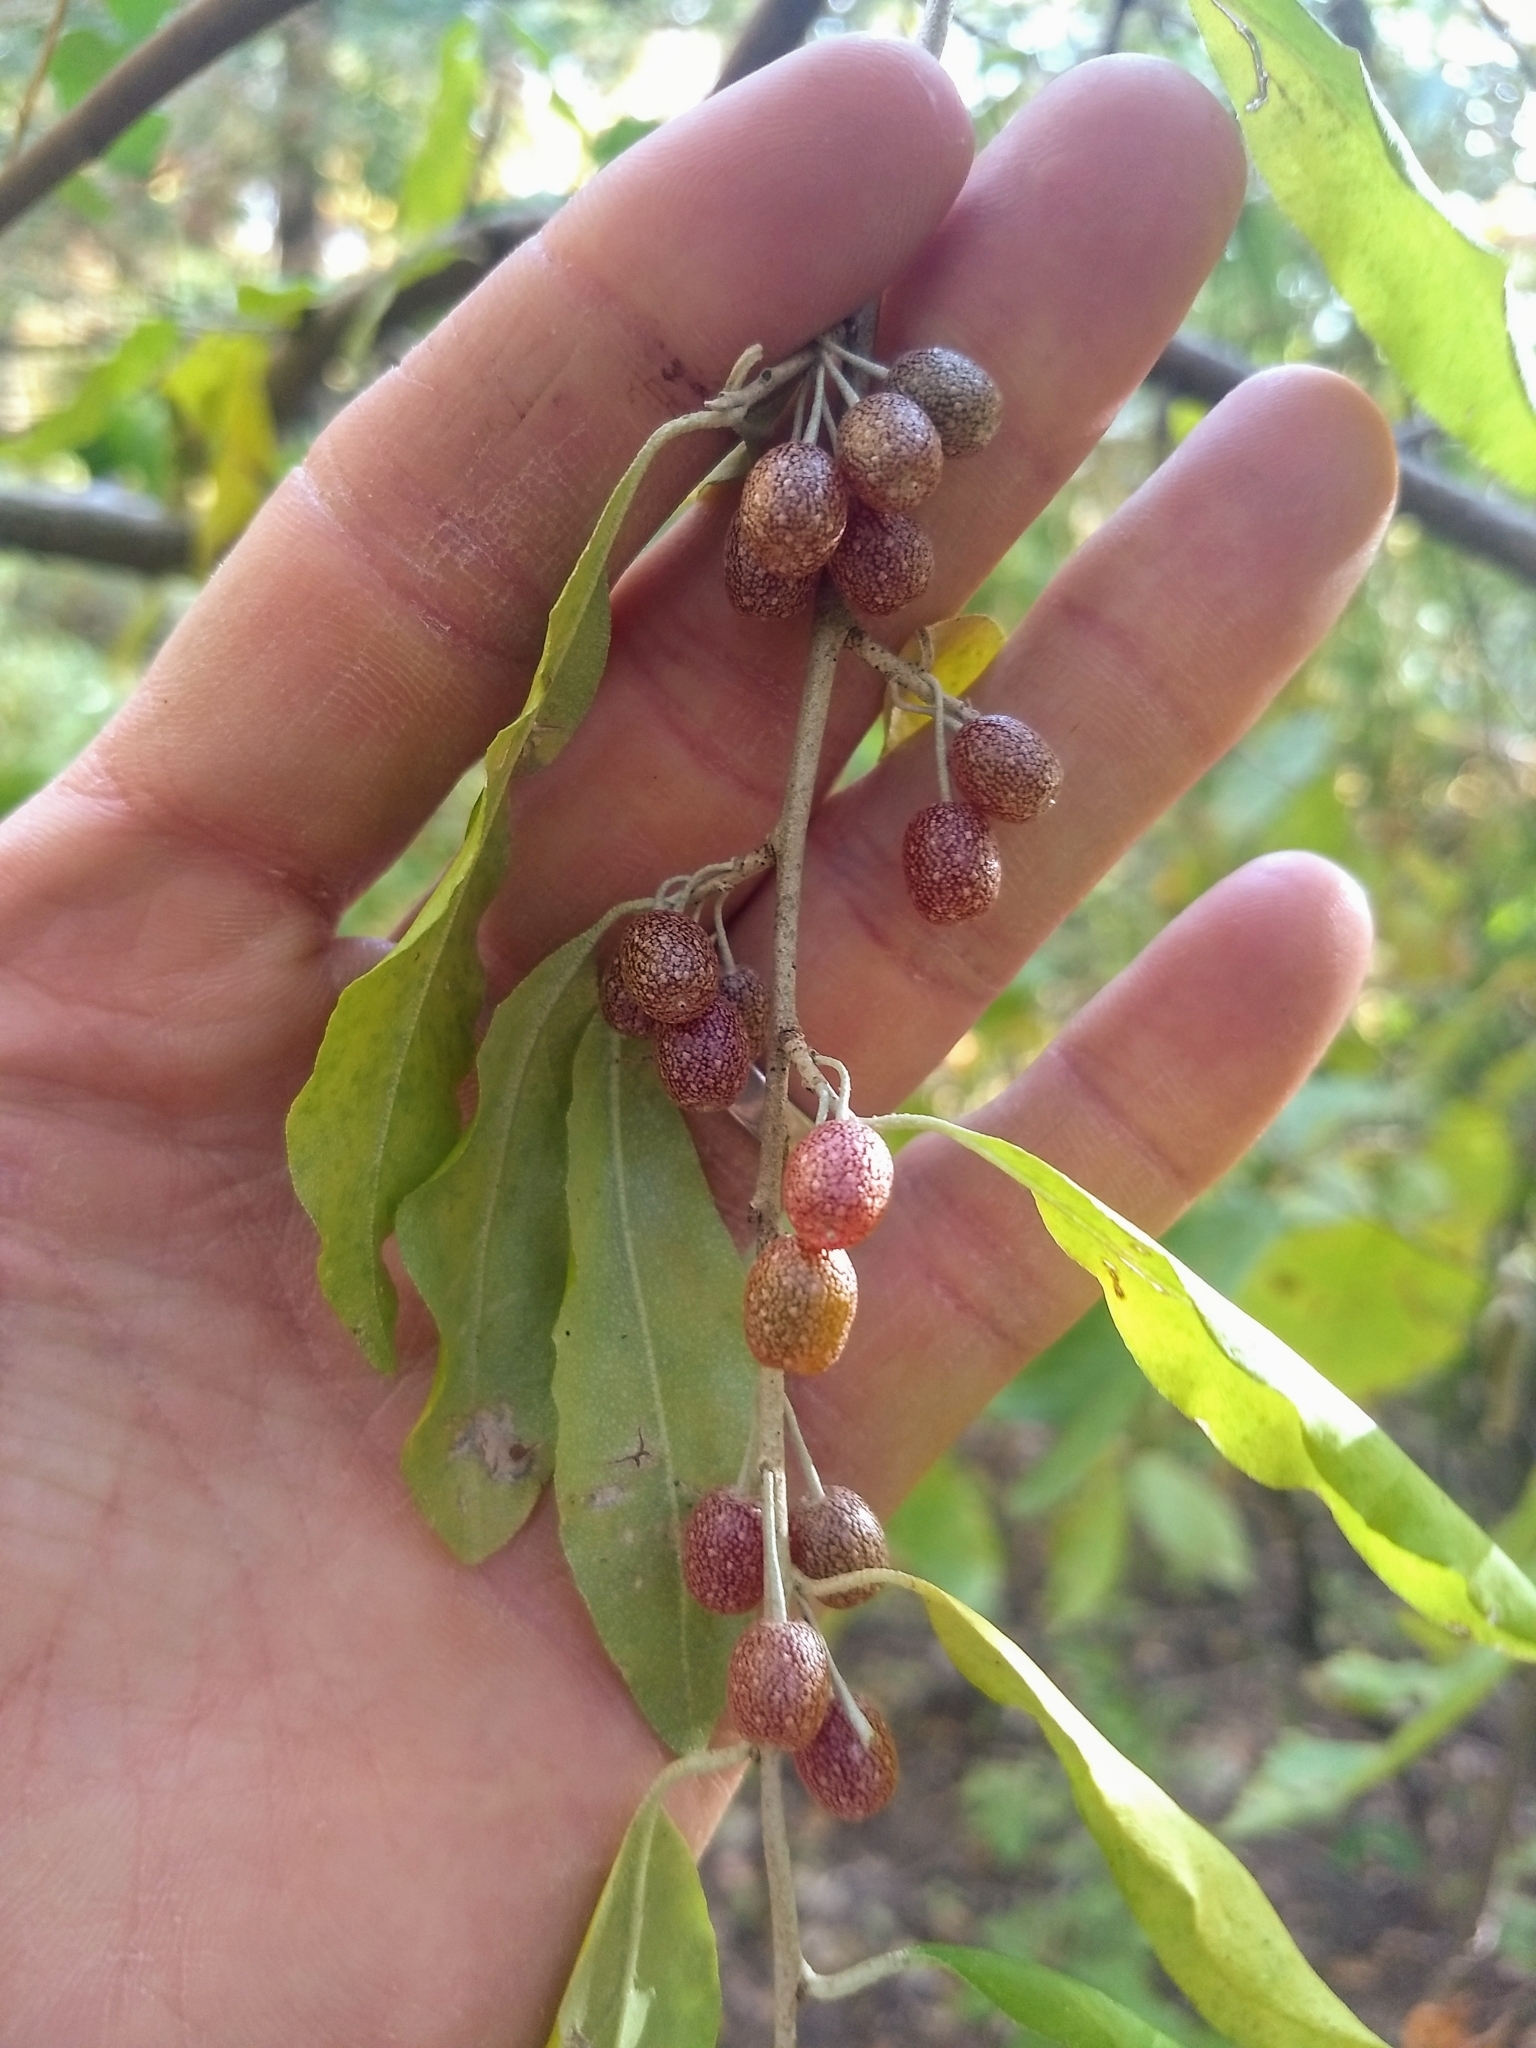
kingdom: Plantae
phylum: Tracheophyta
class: Magnoliopsida
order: Rosales
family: Elaeagnaceae
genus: Elaeagnus
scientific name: Elaeagnus umbellata
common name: Autumn olive
